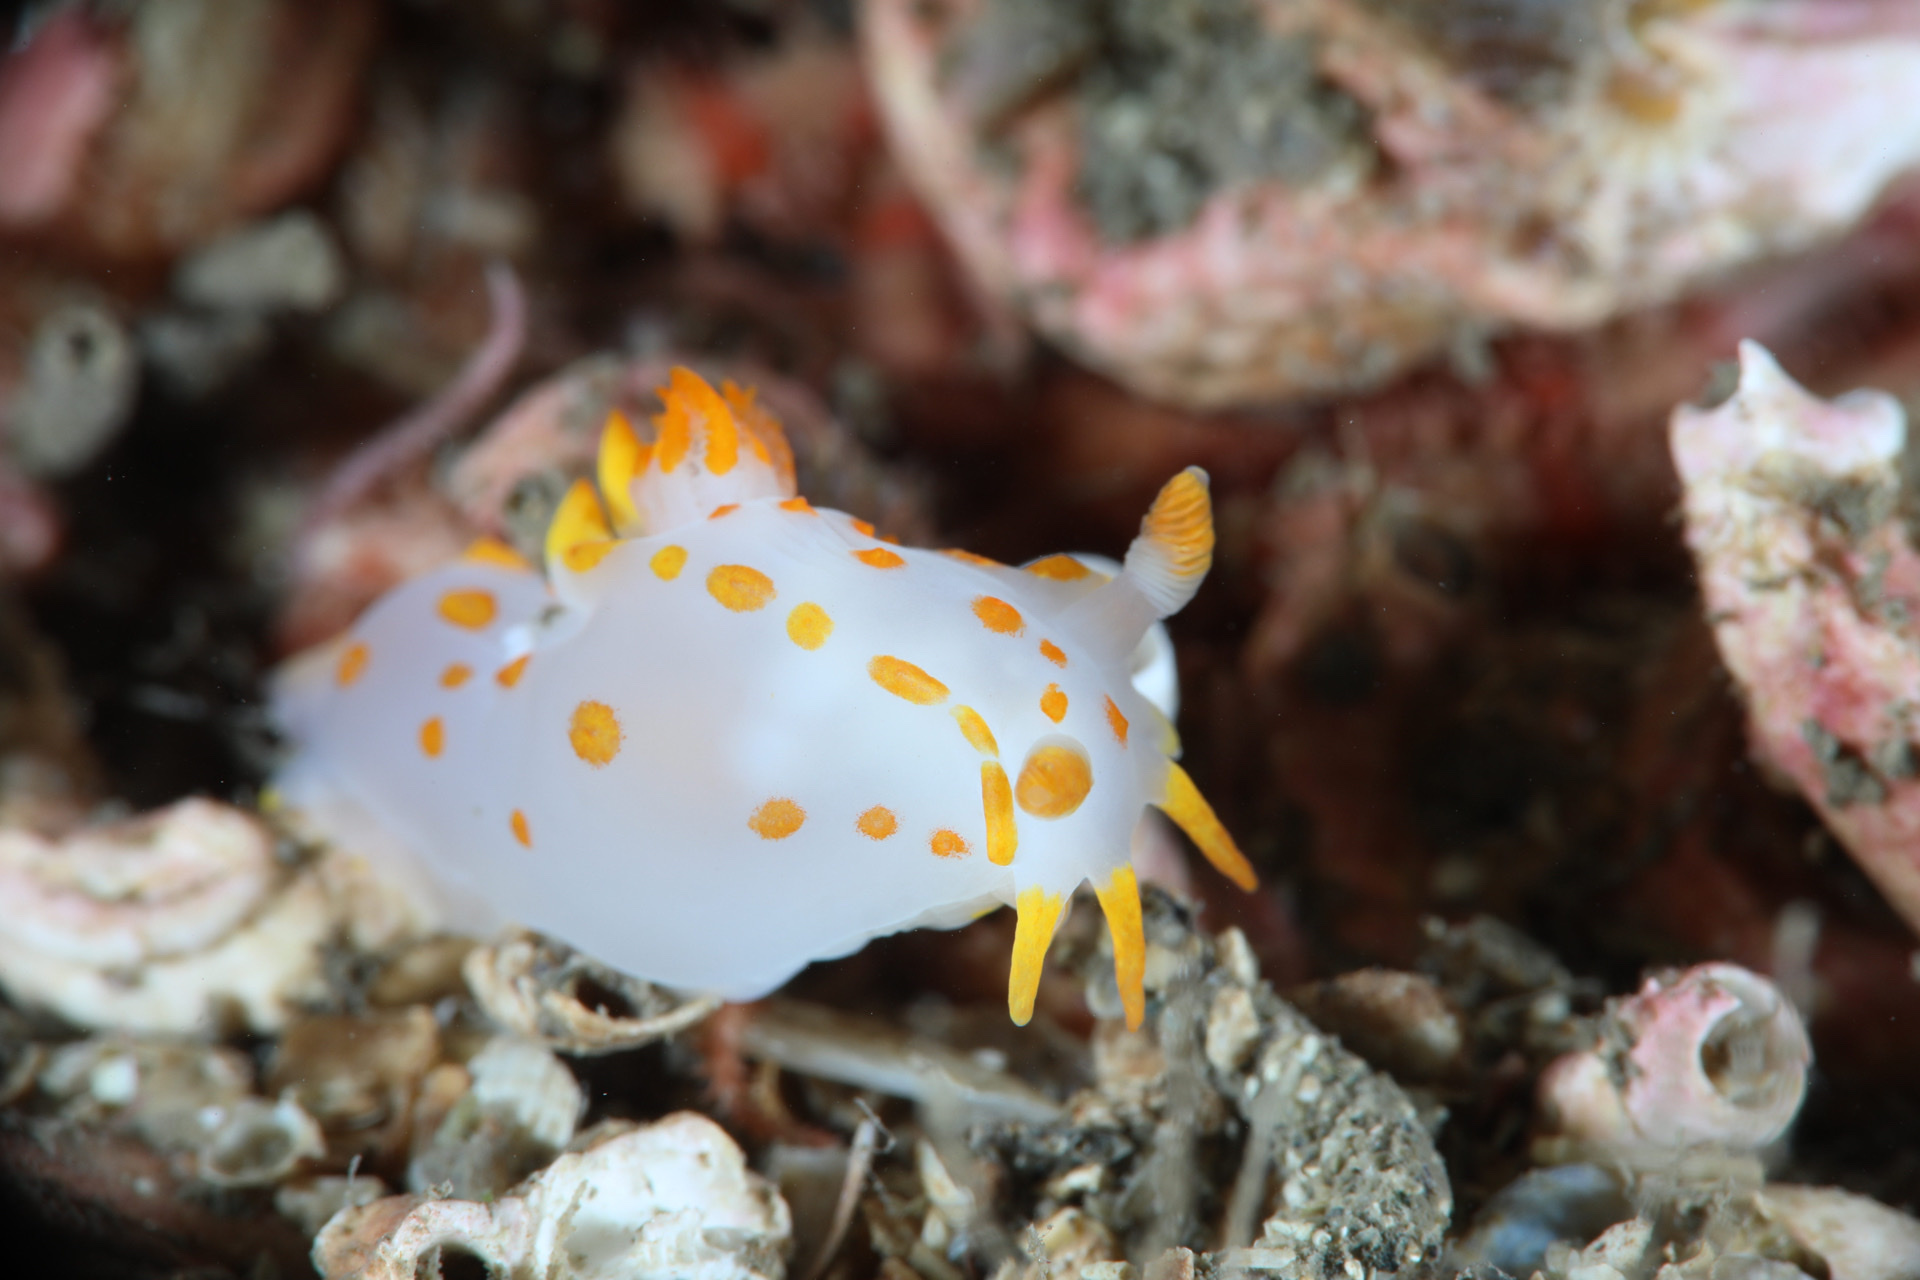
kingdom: Animalia
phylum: Mollusca
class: Gastropoda
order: Nudibranchia
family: Polyceridae
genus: Polycera
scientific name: Polycera quadrilineata
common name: Four-striped polycera
